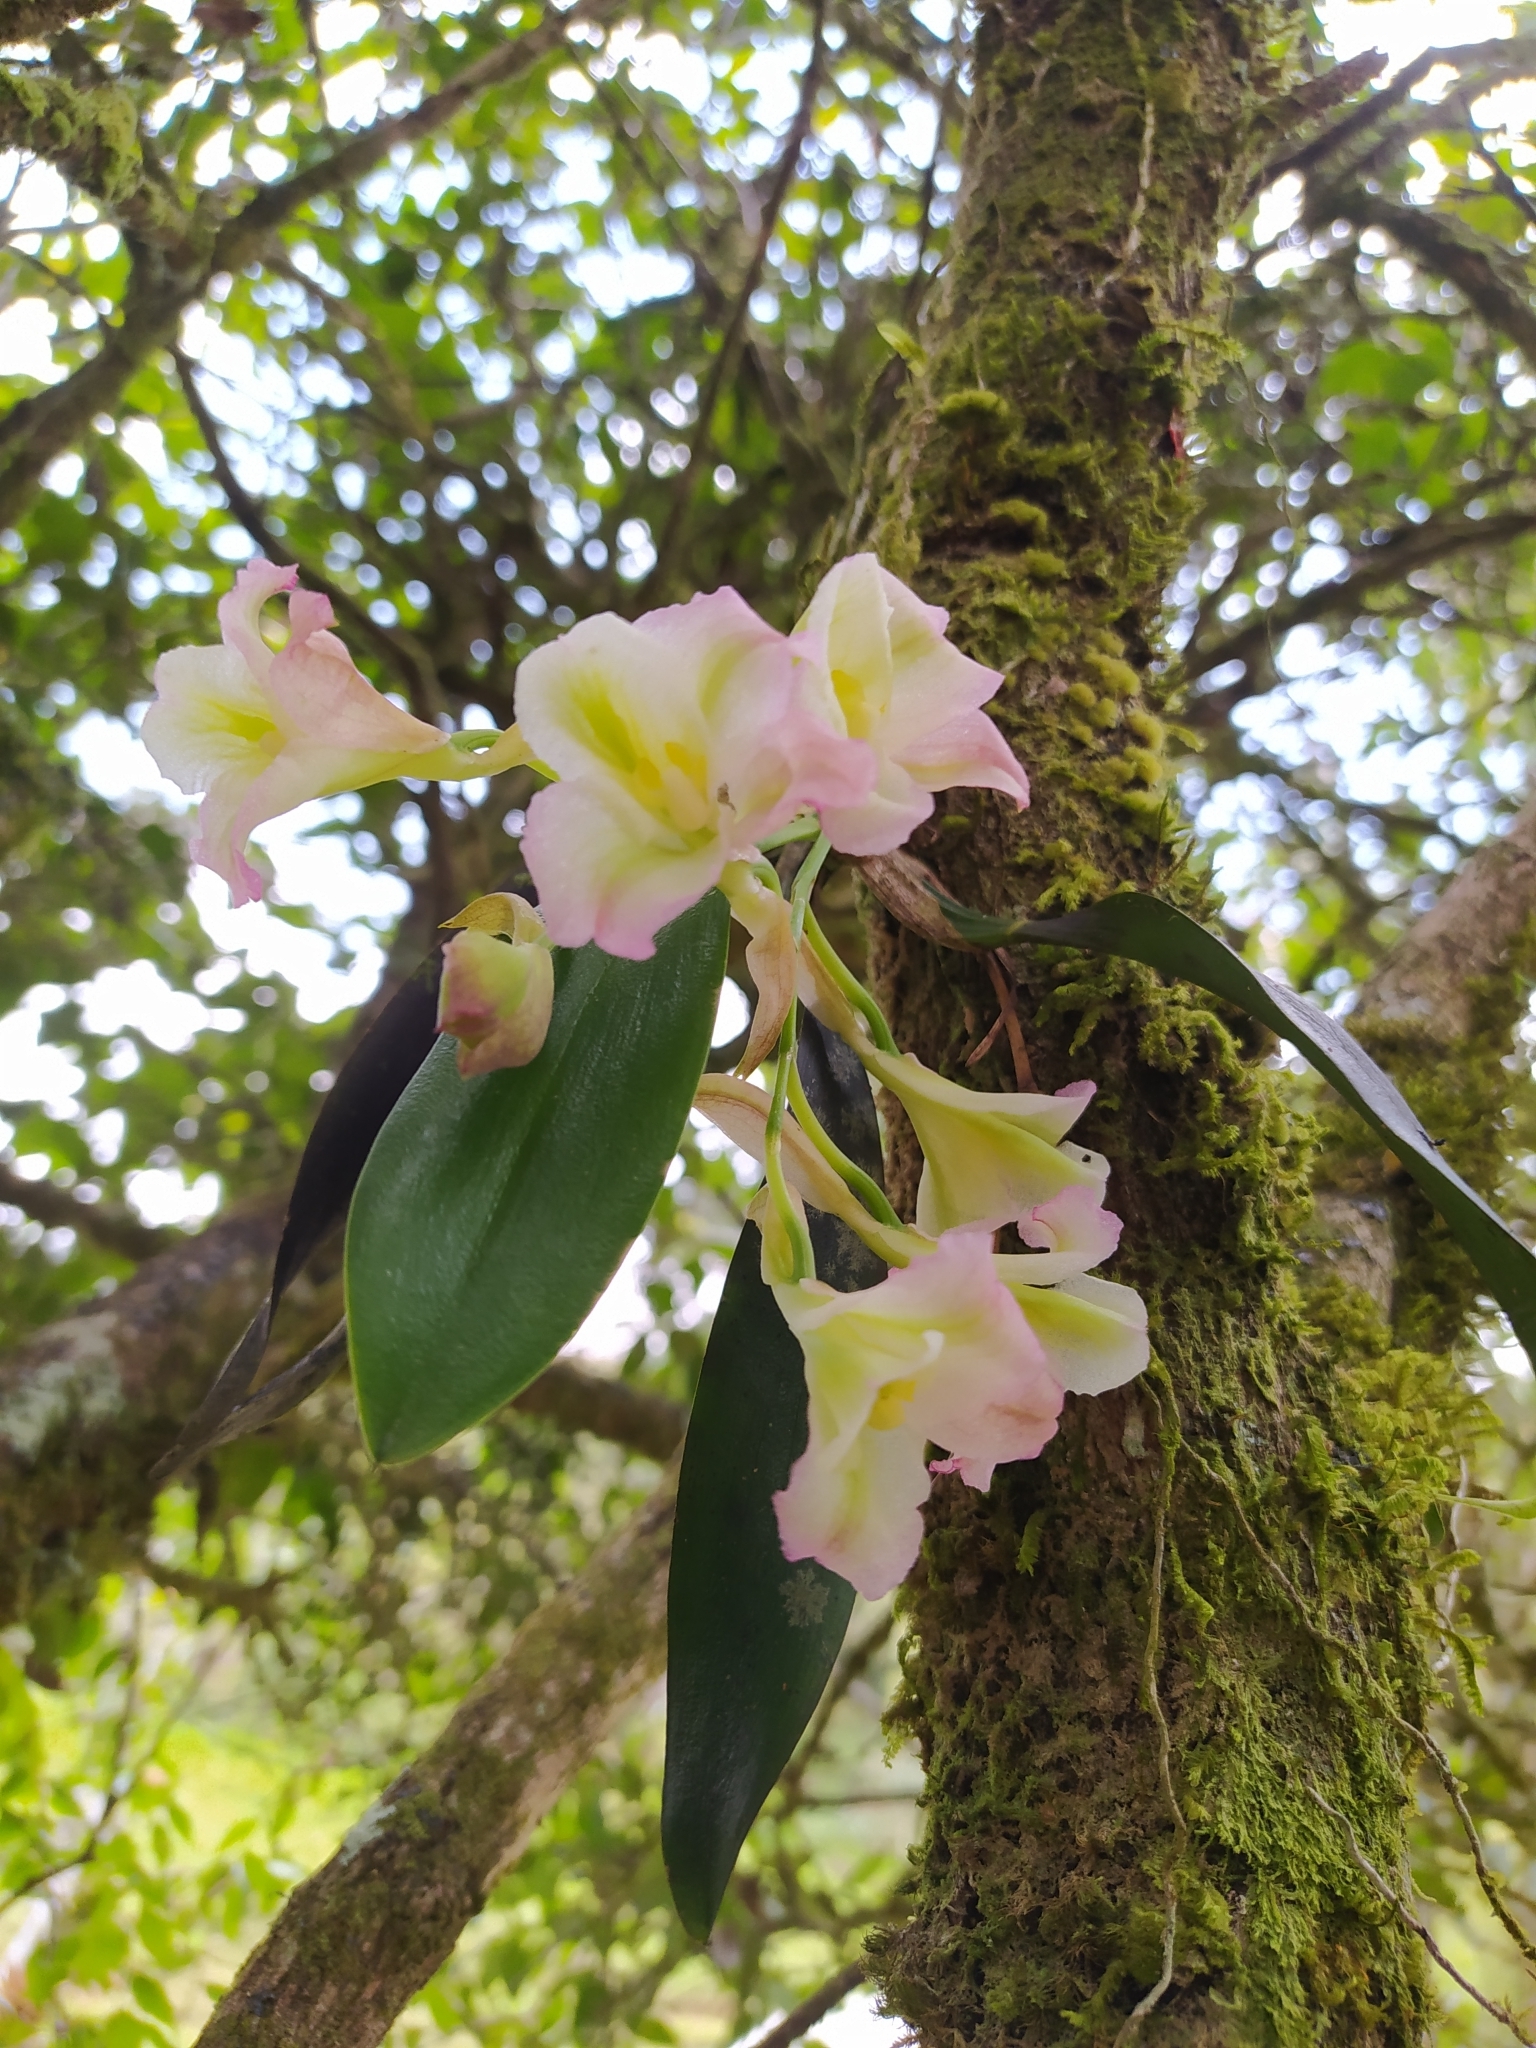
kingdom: Plantae
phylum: Tracheophyta
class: Liliopsida
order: Asparagales
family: Orchidaceae
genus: Rodriguezia
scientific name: Rodriguezia granadensis
